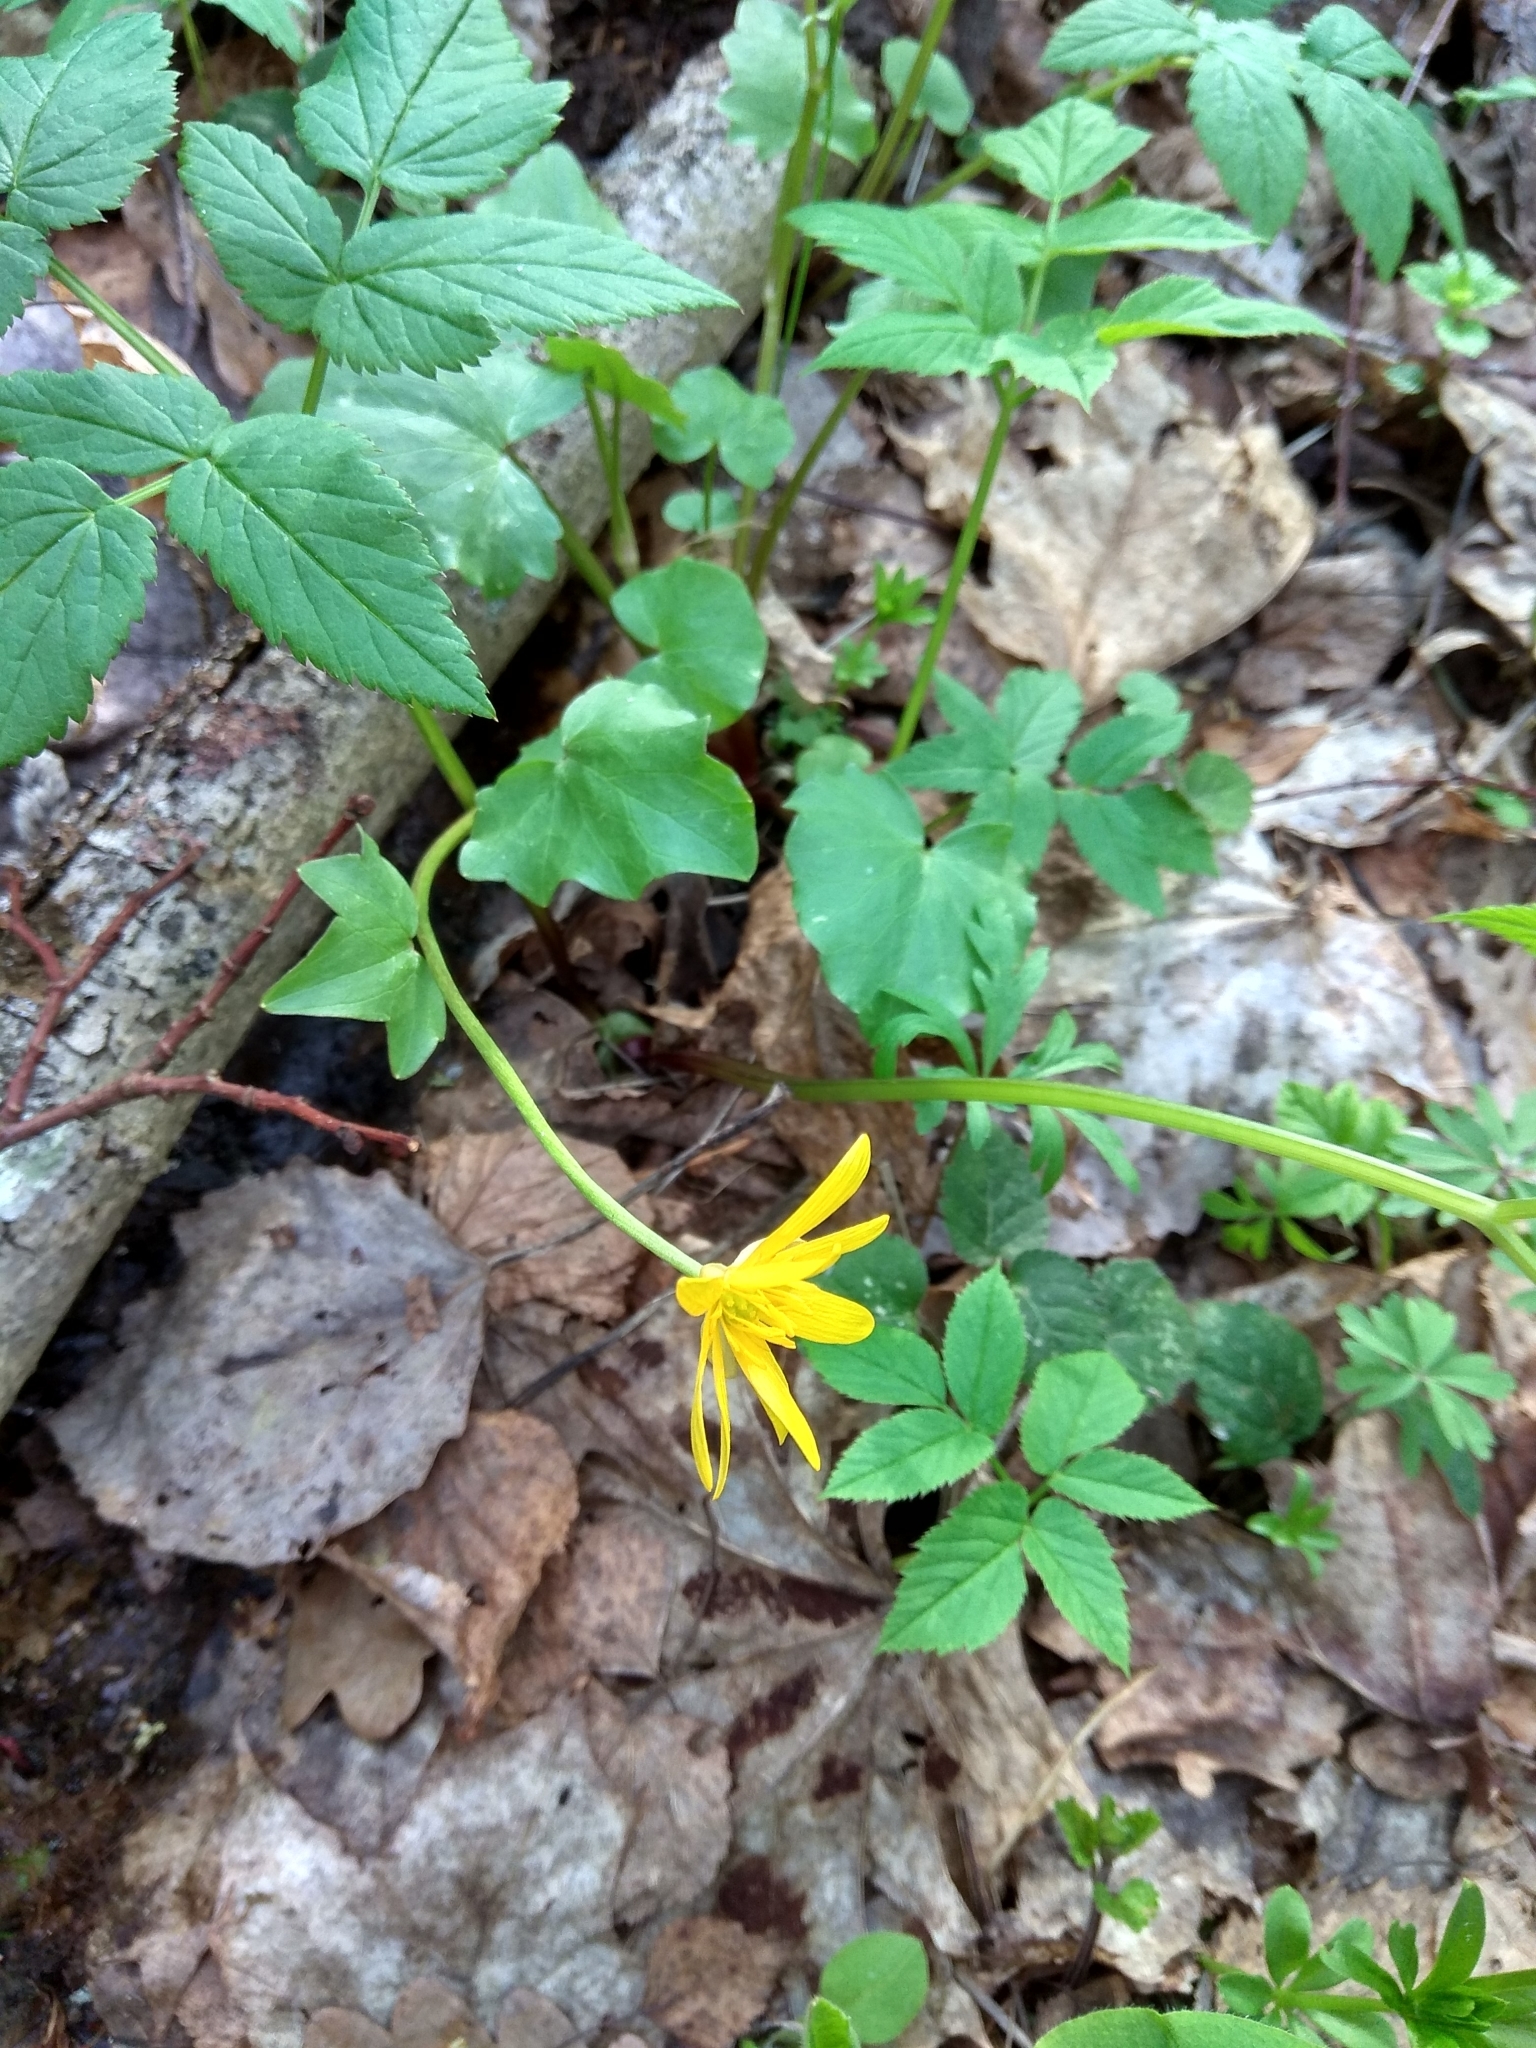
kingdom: Plantae
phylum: Tracheophyta
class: Magnoliopsida
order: Ranunculales
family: Ranunculaceae
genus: Ficaria
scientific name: Ficaria verna
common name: Lesser celandine
